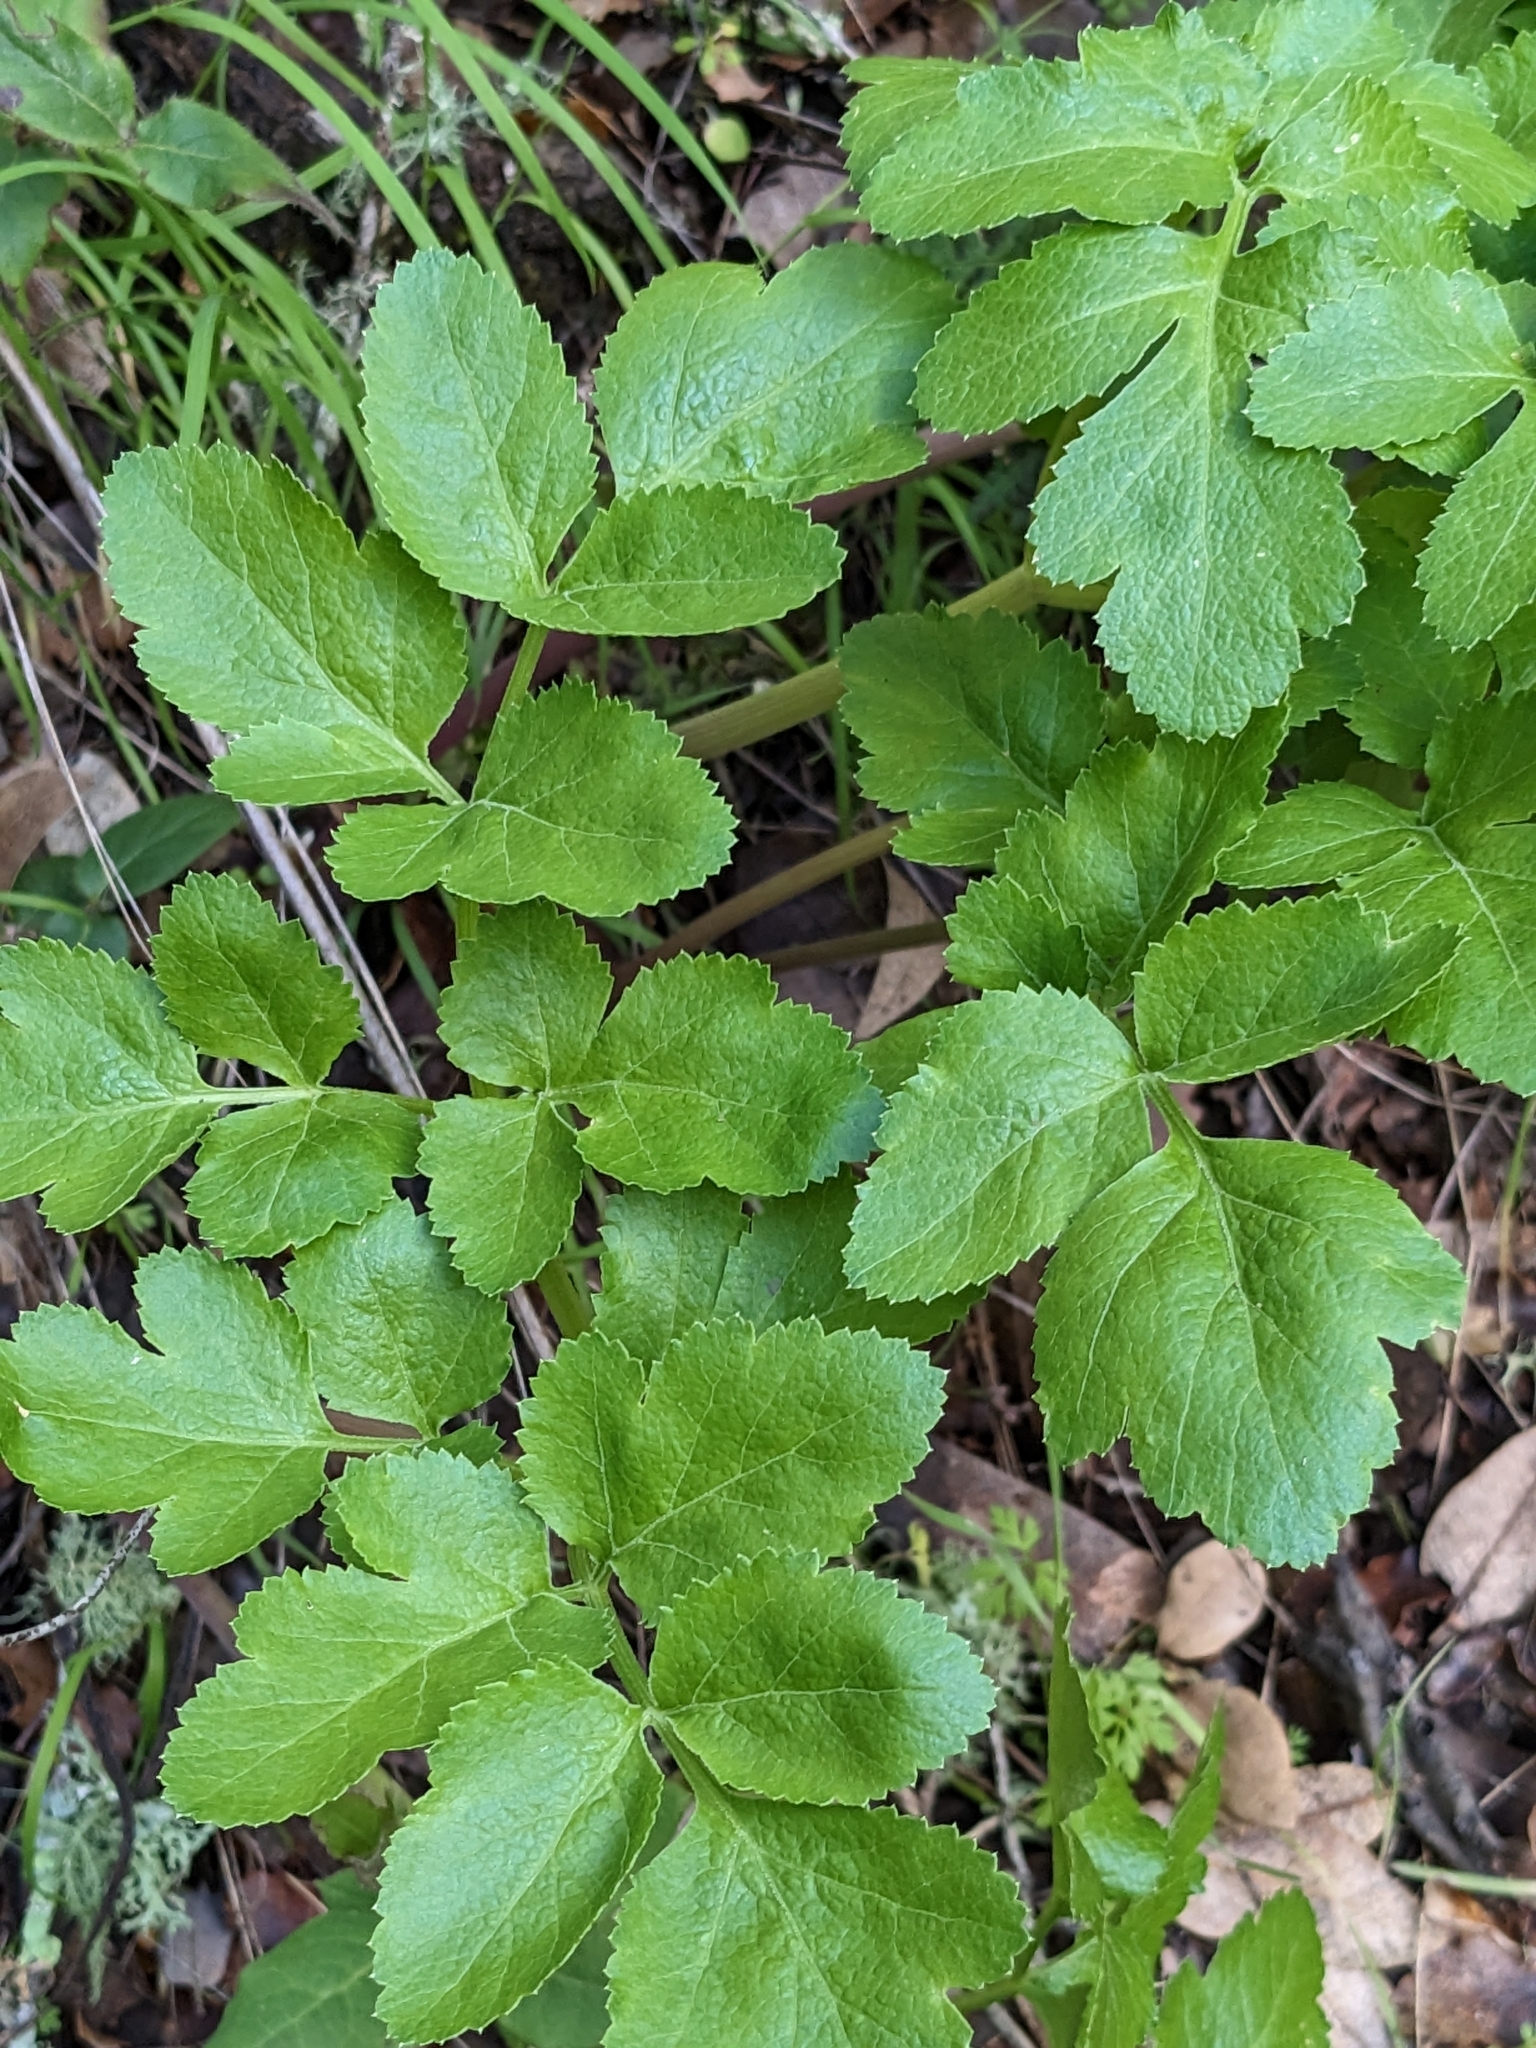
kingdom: Plantae
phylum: Tracheophyta
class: Magnoliopsida
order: Apiales
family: Apiaceae
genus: Tauschia
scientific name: Tauschia hartwegii
